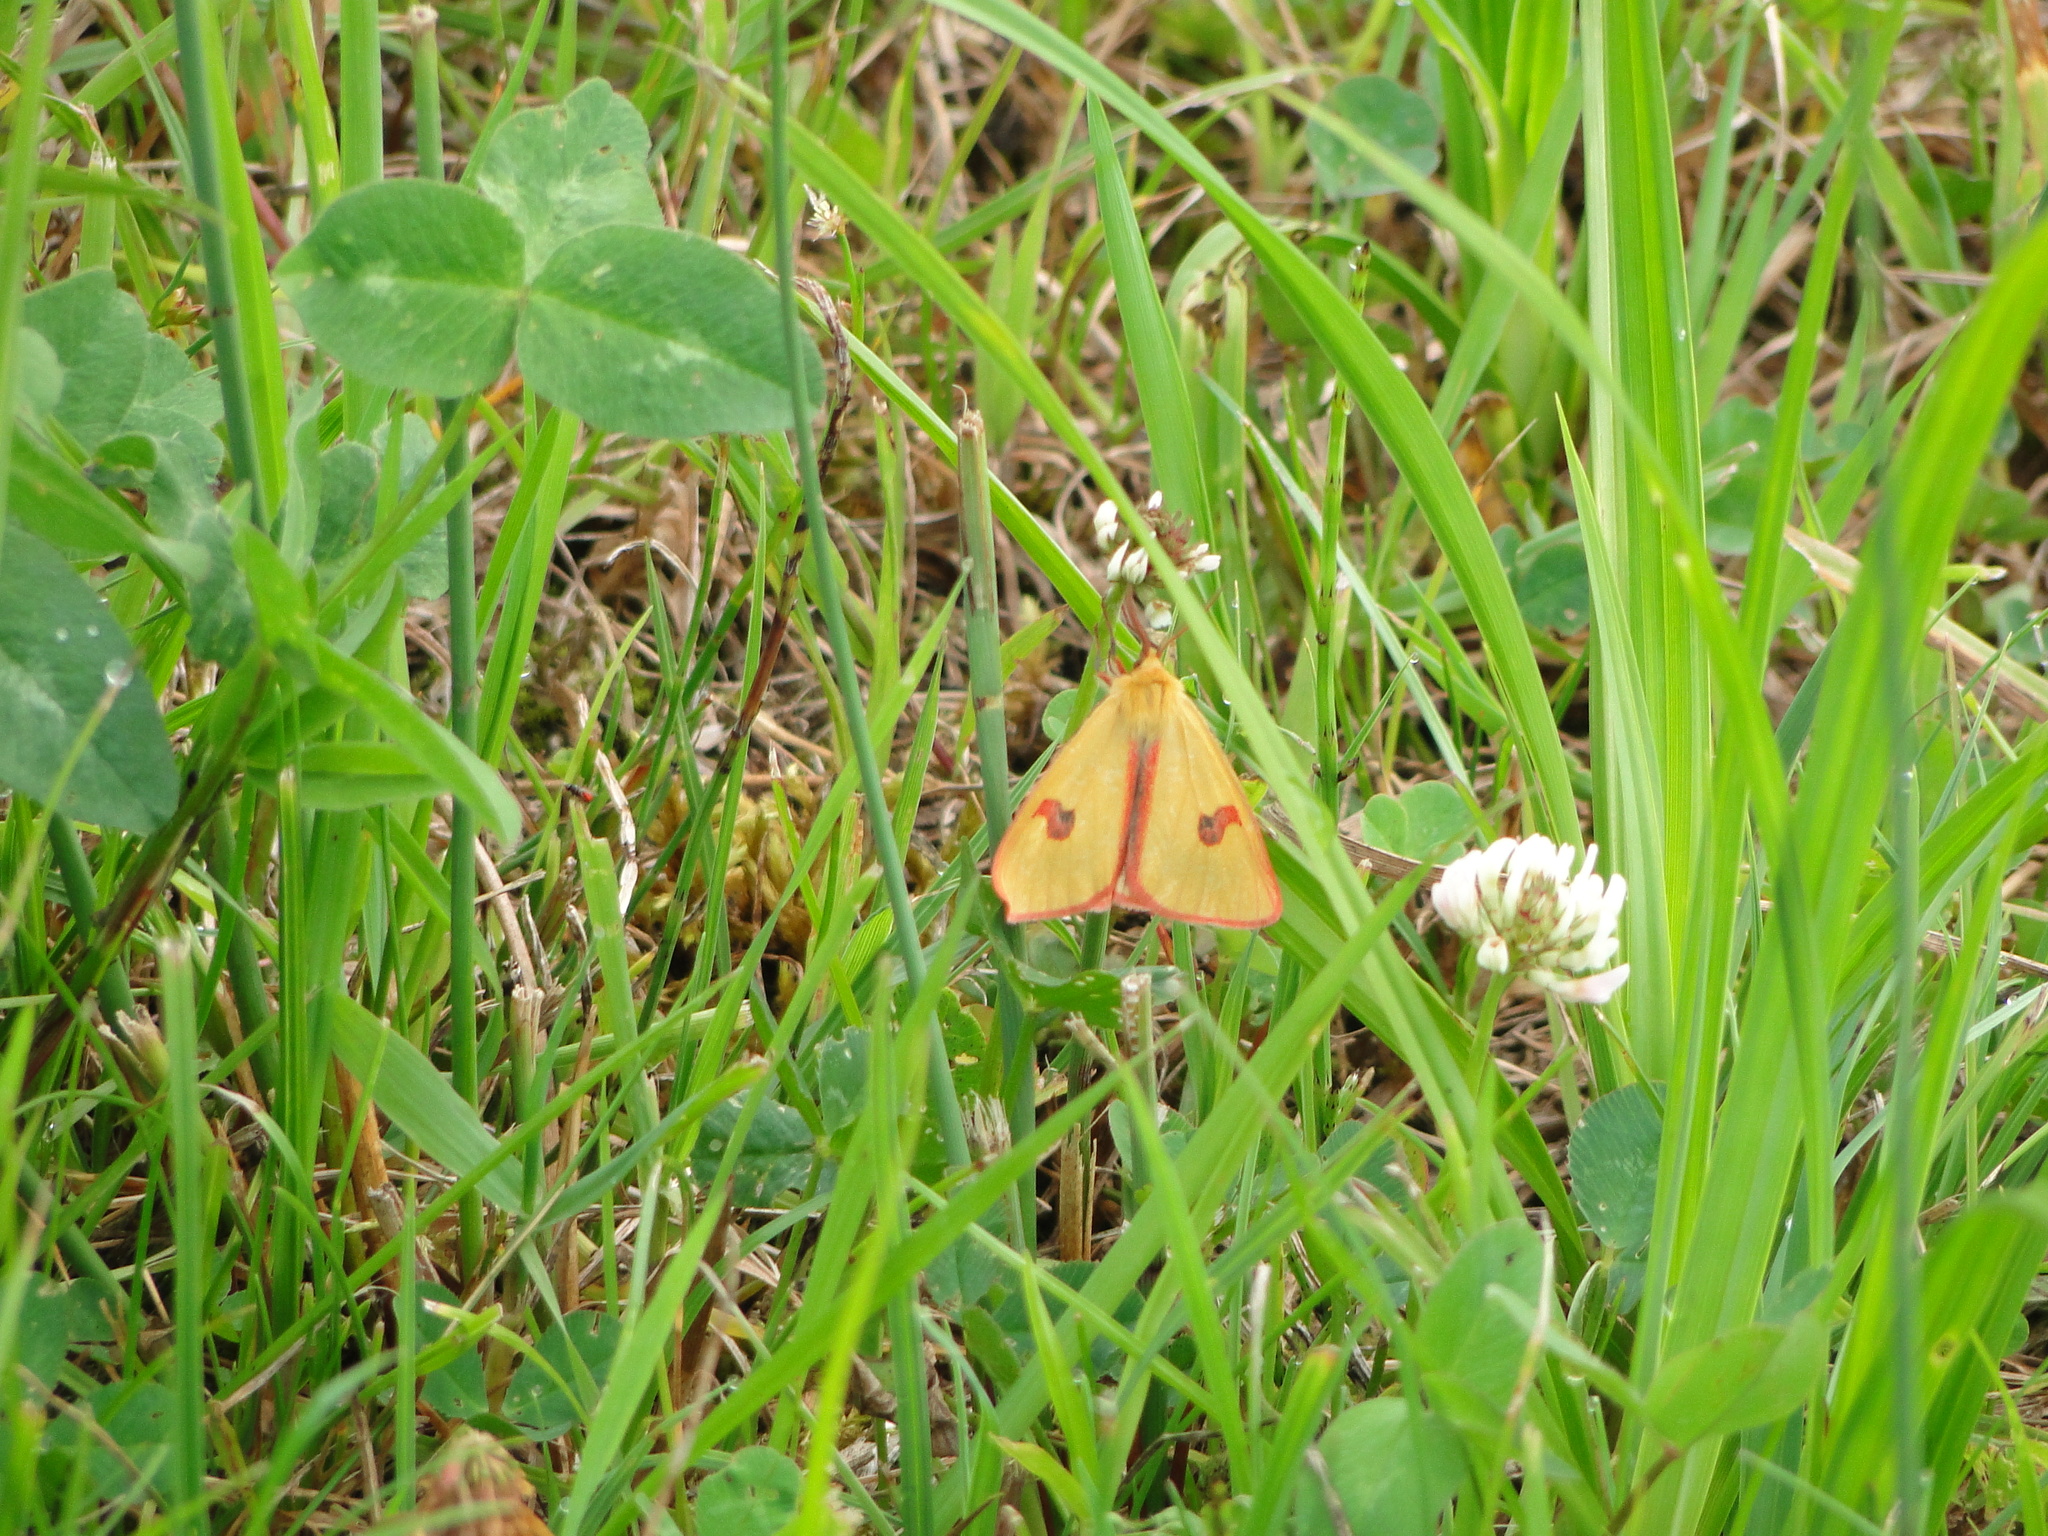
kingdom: Animalia
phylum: Arthropoda
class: Insecta
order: Lepidoptera
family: Erebidae
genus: Diacrisia
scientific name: Diacrisia sannio
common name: Clouded buff
